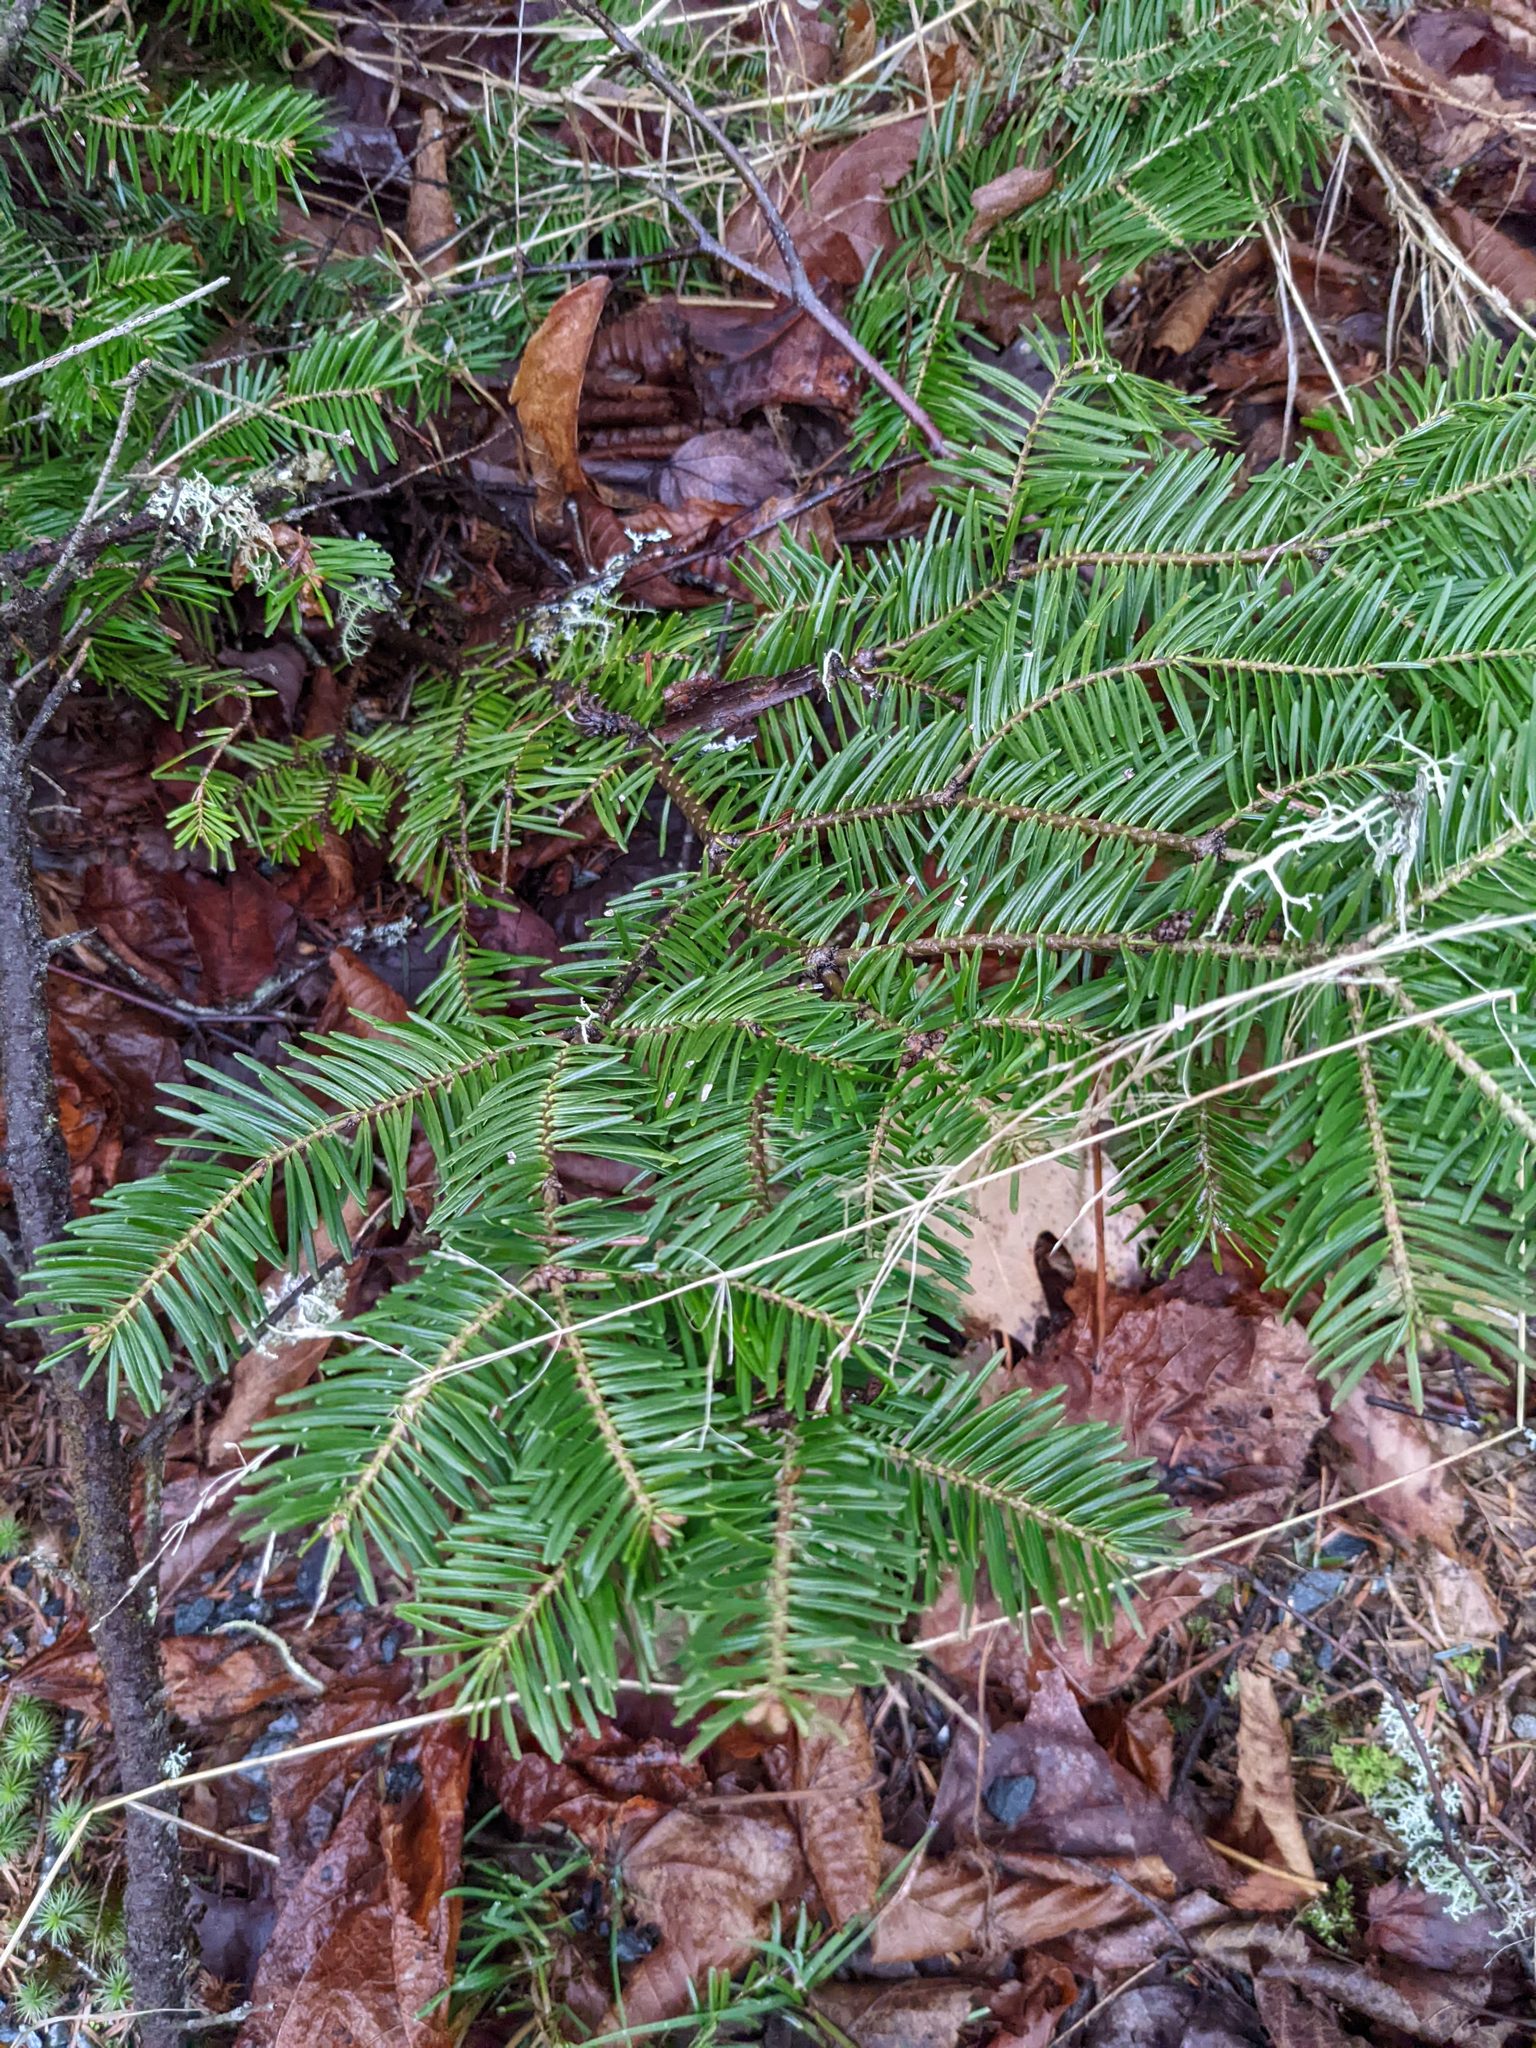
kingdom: Plantae
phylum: Tracheophyta
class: Pinopsida
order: Pinales
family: Pinaceae
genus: Abies
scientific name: Abies balsamea
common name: Balsam fir
